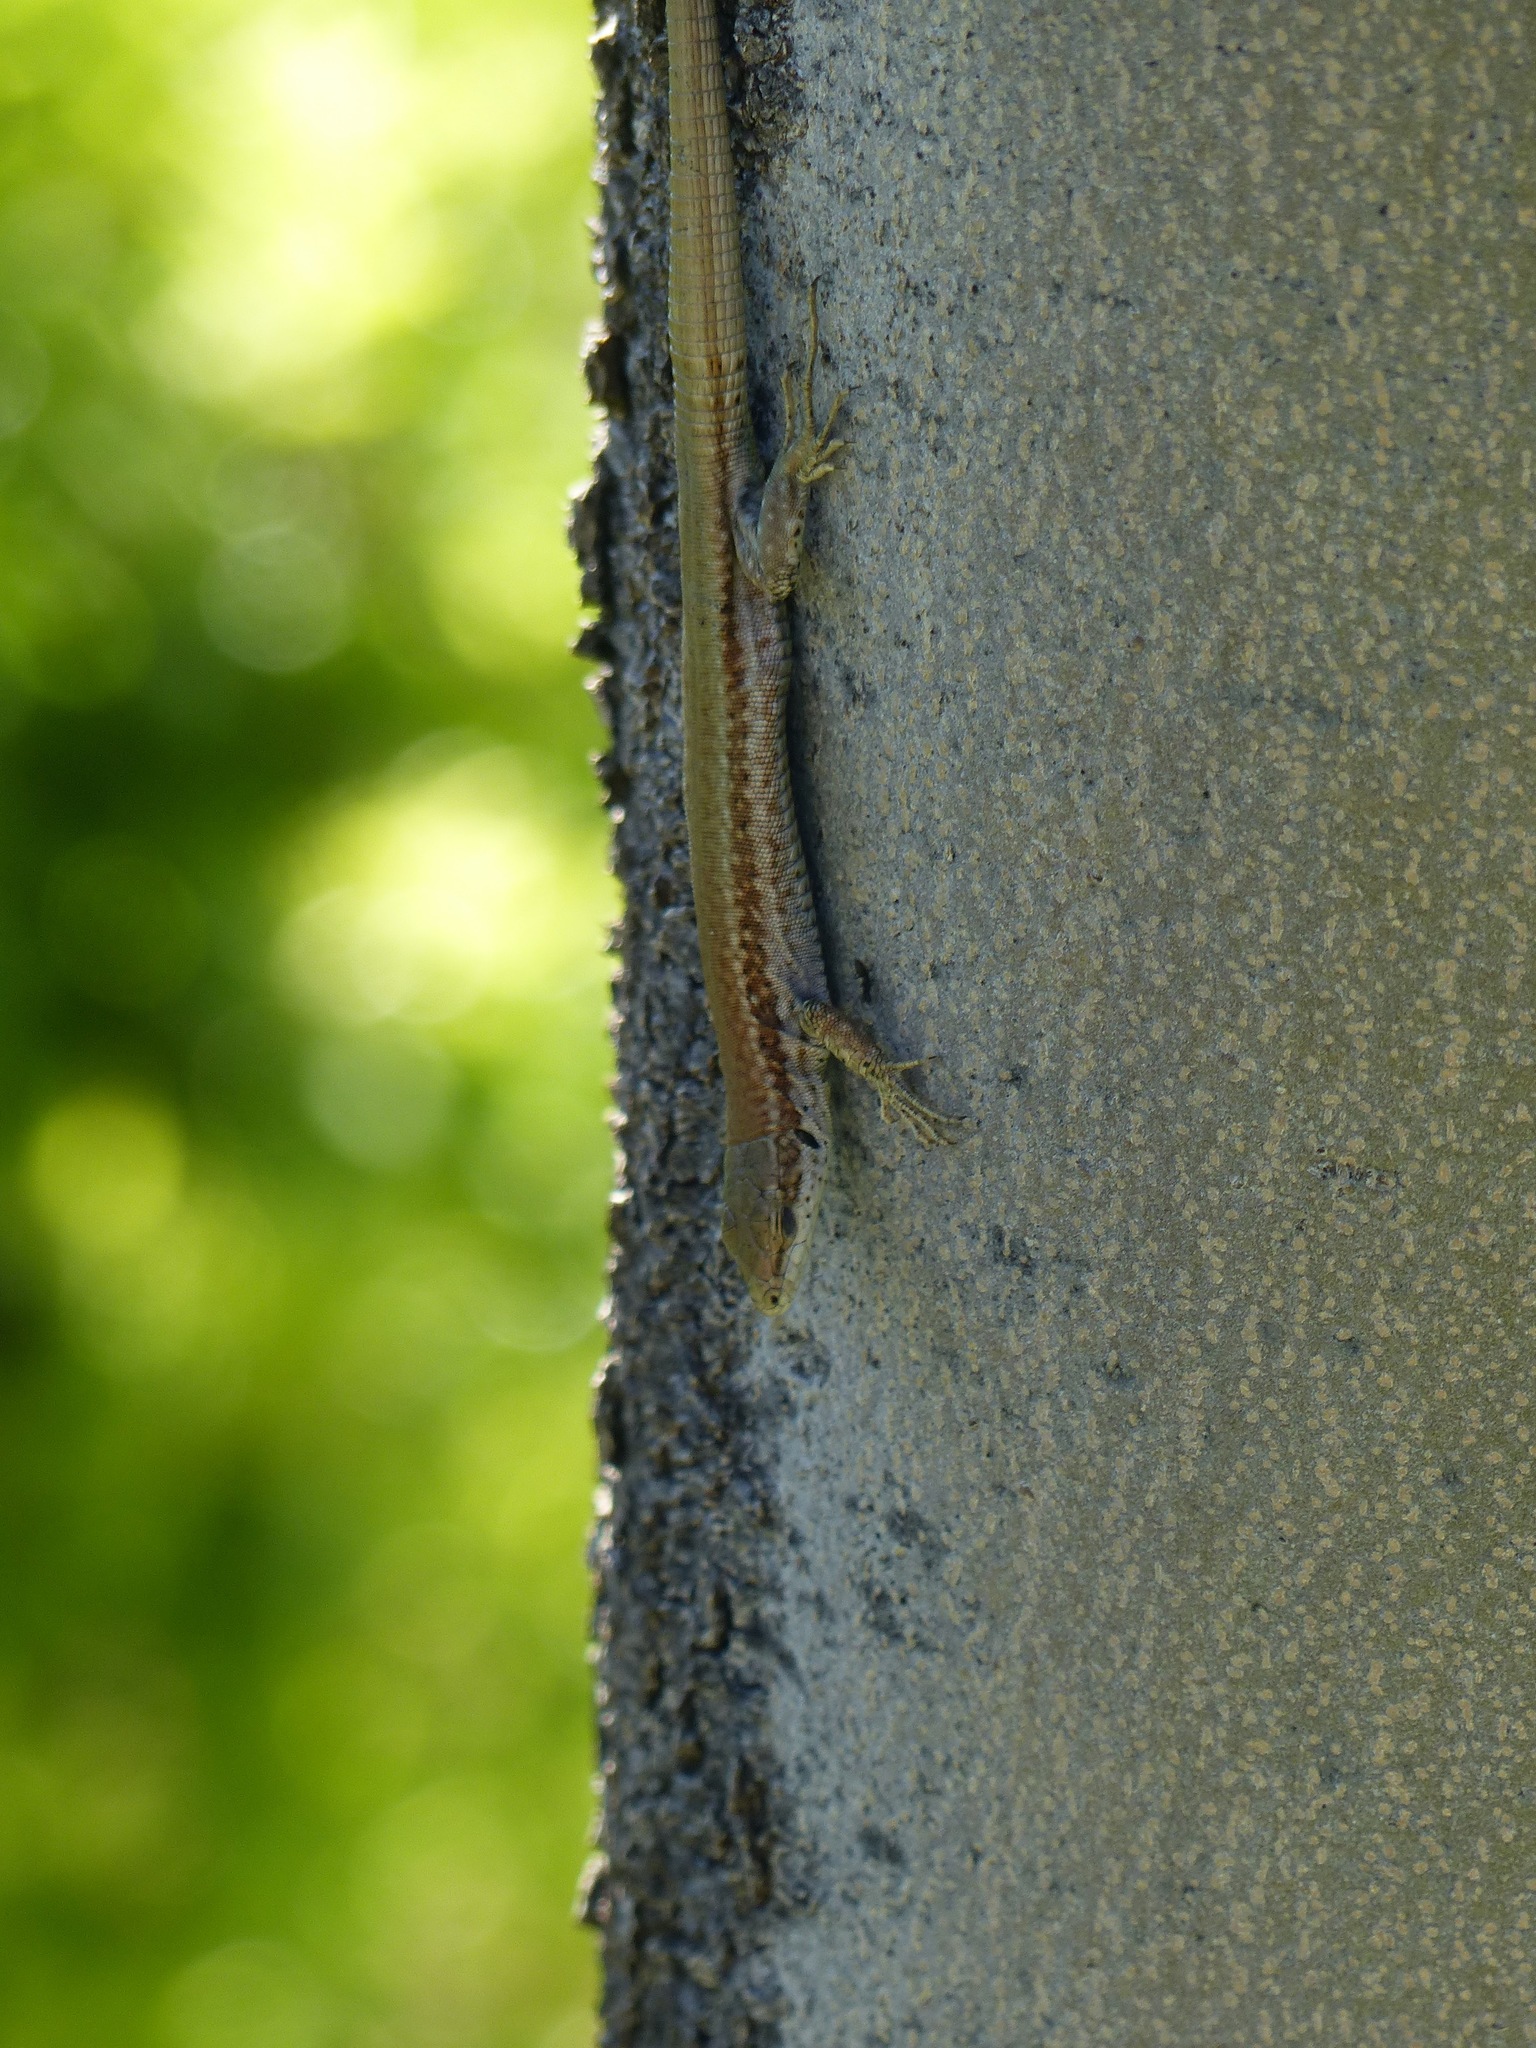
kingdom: Animalia
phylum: Chordata
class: Squamata
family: Lacertidae
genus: Podarcis
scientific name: Podarcis vaucheri
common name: Vaucher's wall lizard
